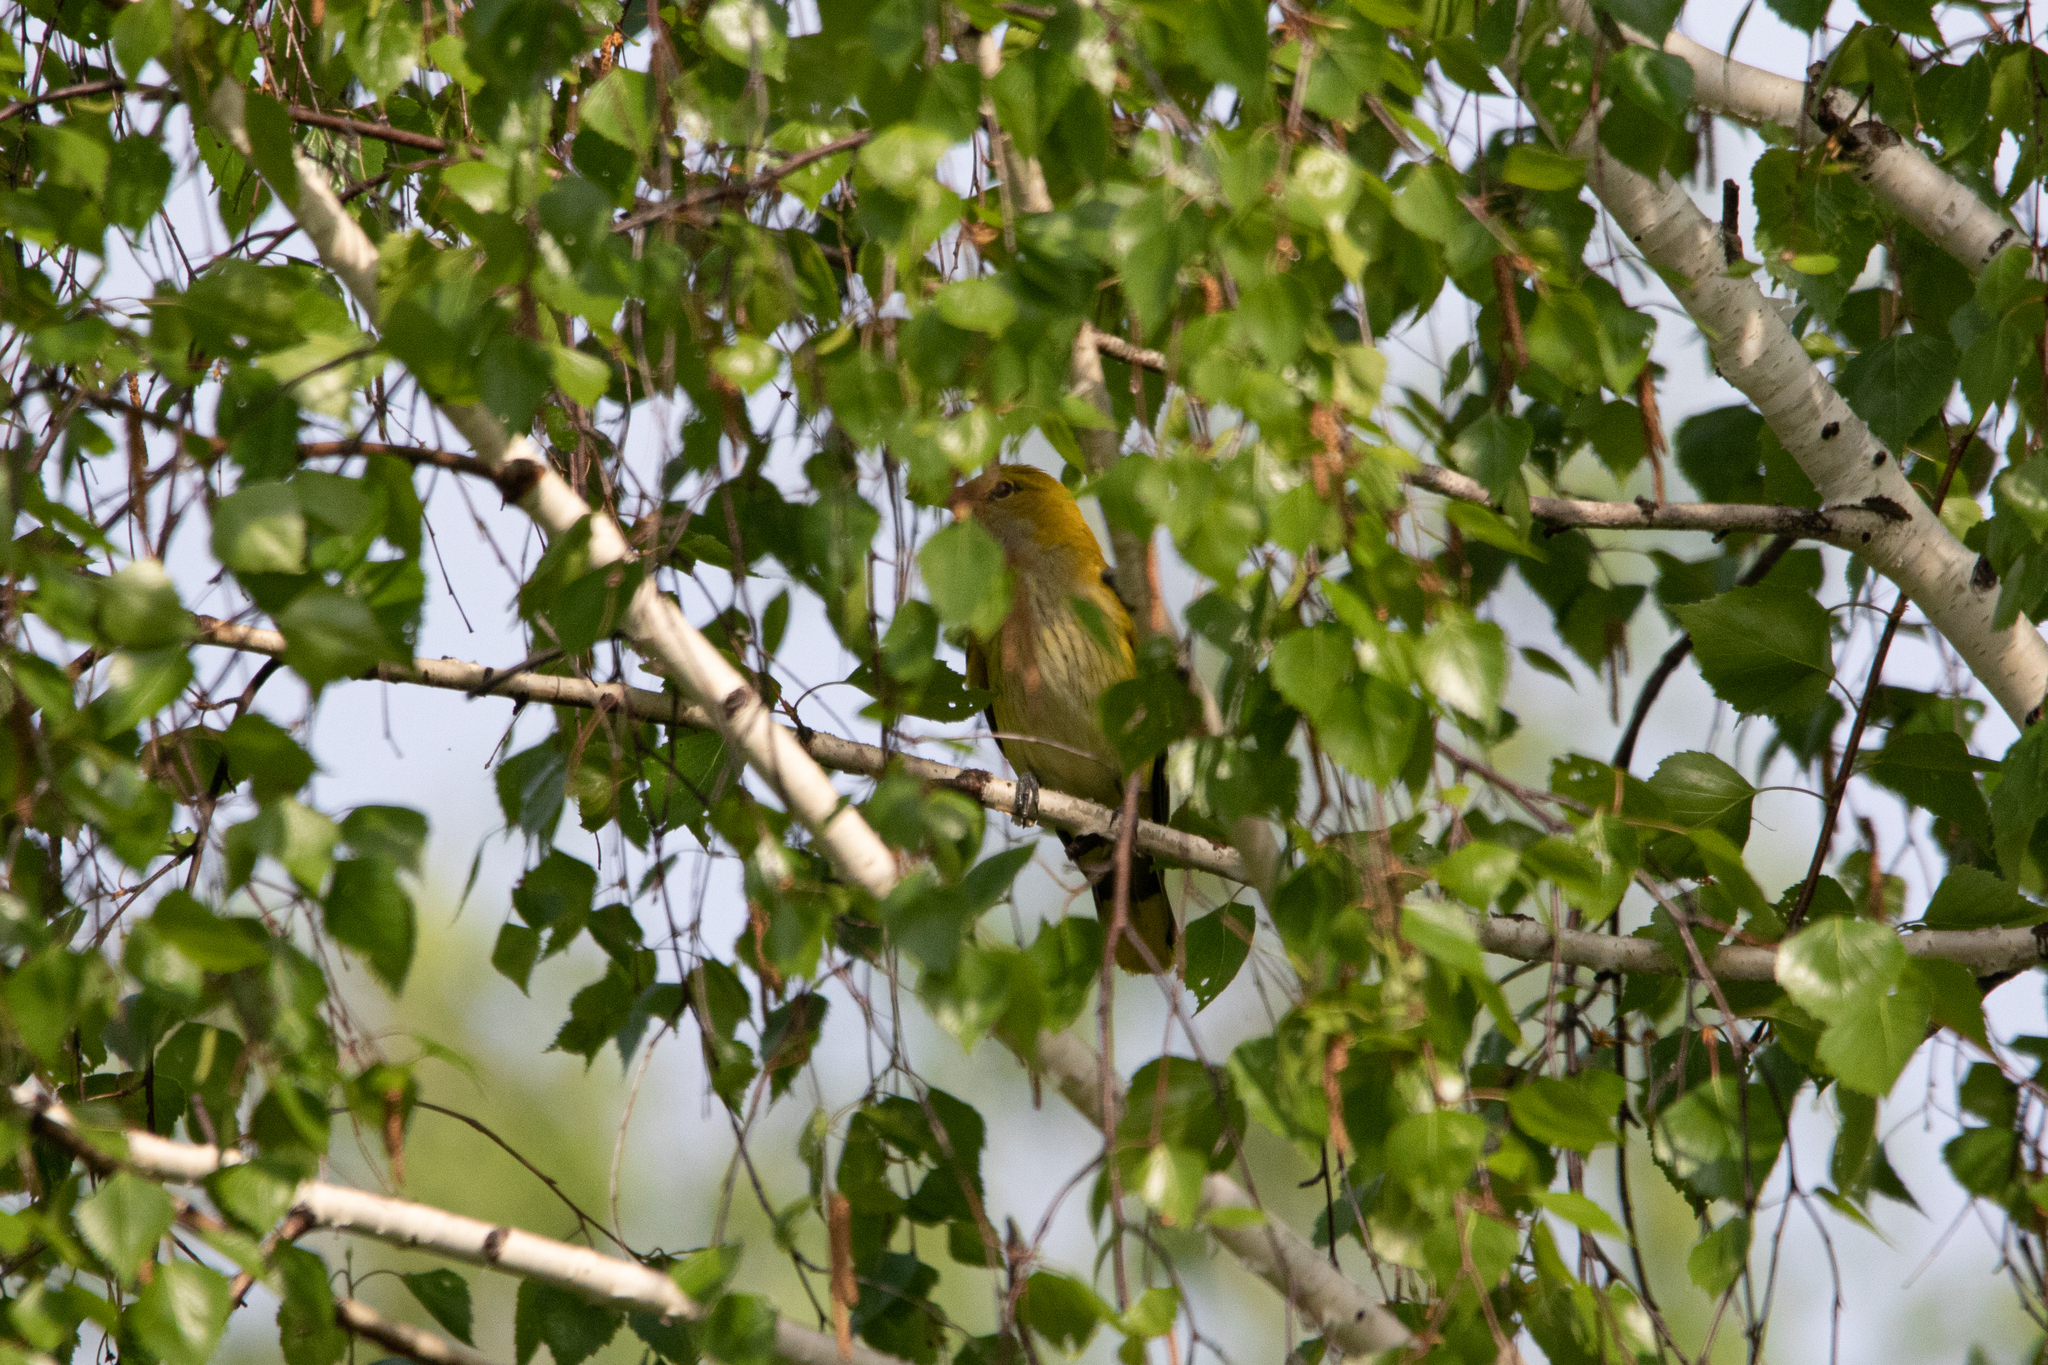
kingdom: Animalia
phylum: Chordata
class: Aves
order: Passeriformes
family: Oriolidae
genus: Oriolus
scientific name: Oriolus oriolus
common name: Eurasian golden oriole
